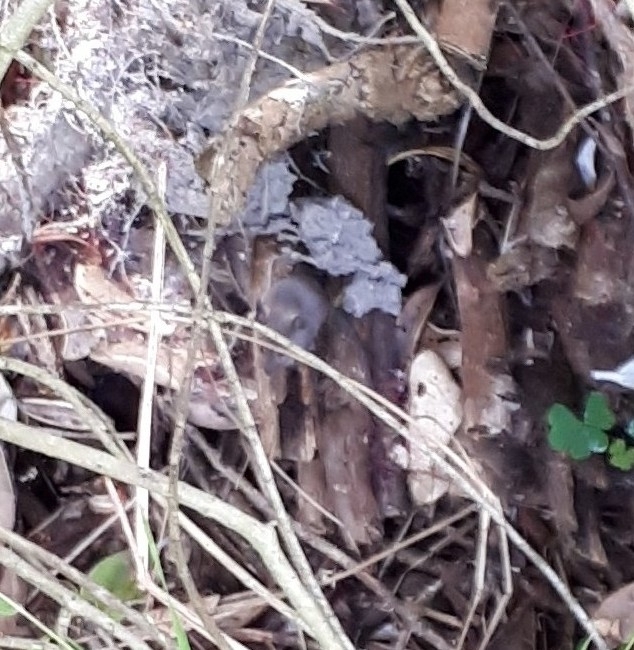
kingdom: Animalia
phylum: Chordata
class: Mammalia
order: Rodentia
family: Muridae
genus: Mus
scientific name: Mus musculus
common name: House mouse
